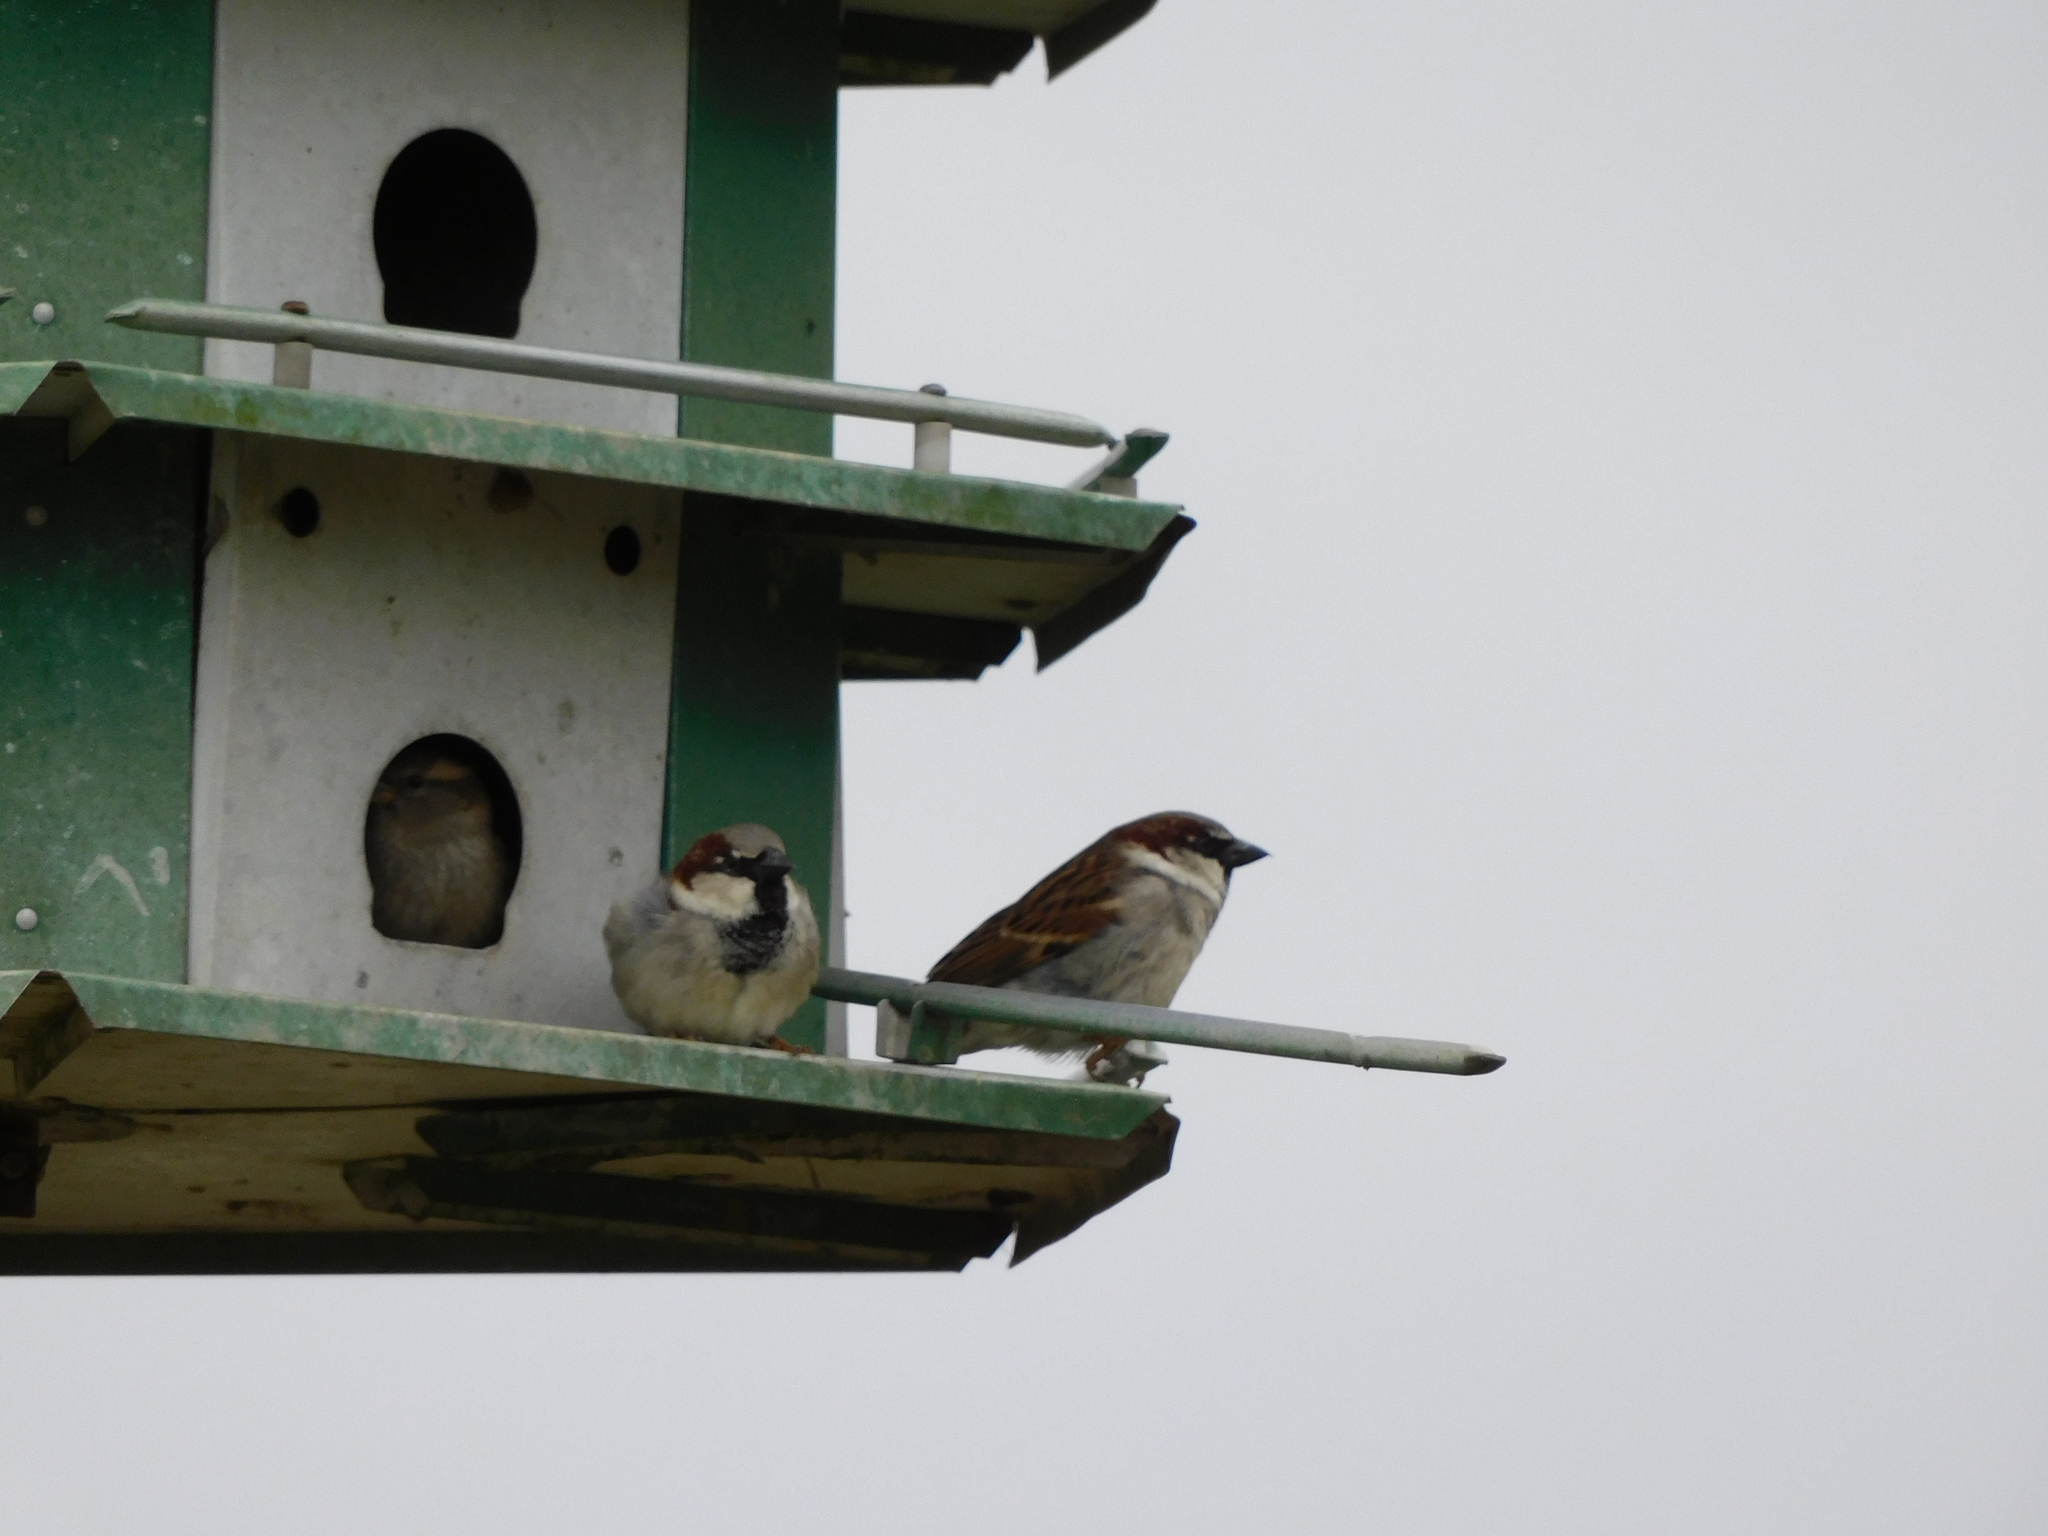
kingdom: Animalia
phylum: Chordata
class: Aves
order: Passeriformes
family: Passeridae
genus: Passer
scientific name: Passer domesticus
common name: House sparrow
